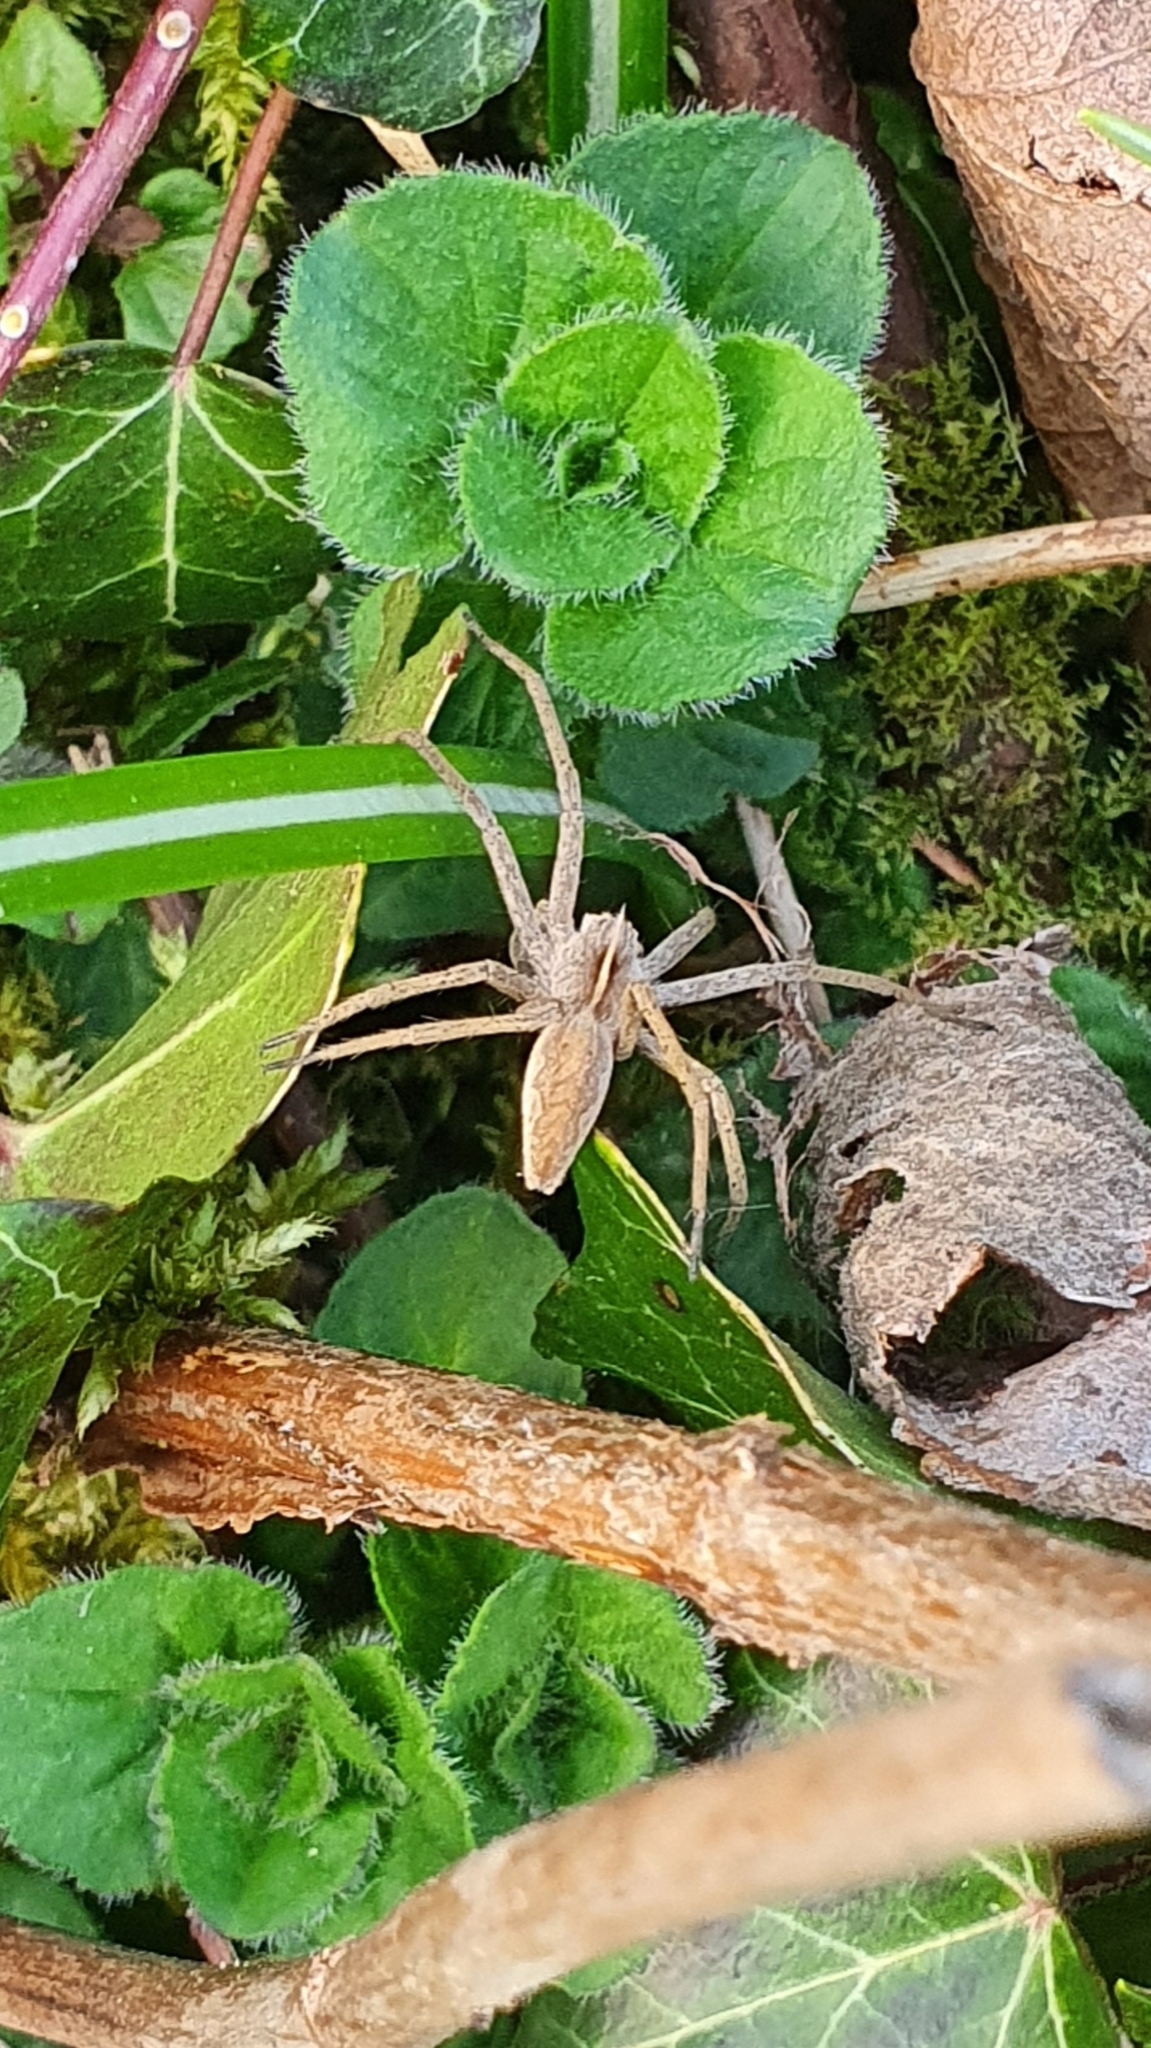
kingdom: Animalia
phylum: Arthropoda
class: Arachnida
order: Araneae
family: Pisauridae
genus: Pisaura
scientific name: Pisaura mirabilis
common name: Tent spider
